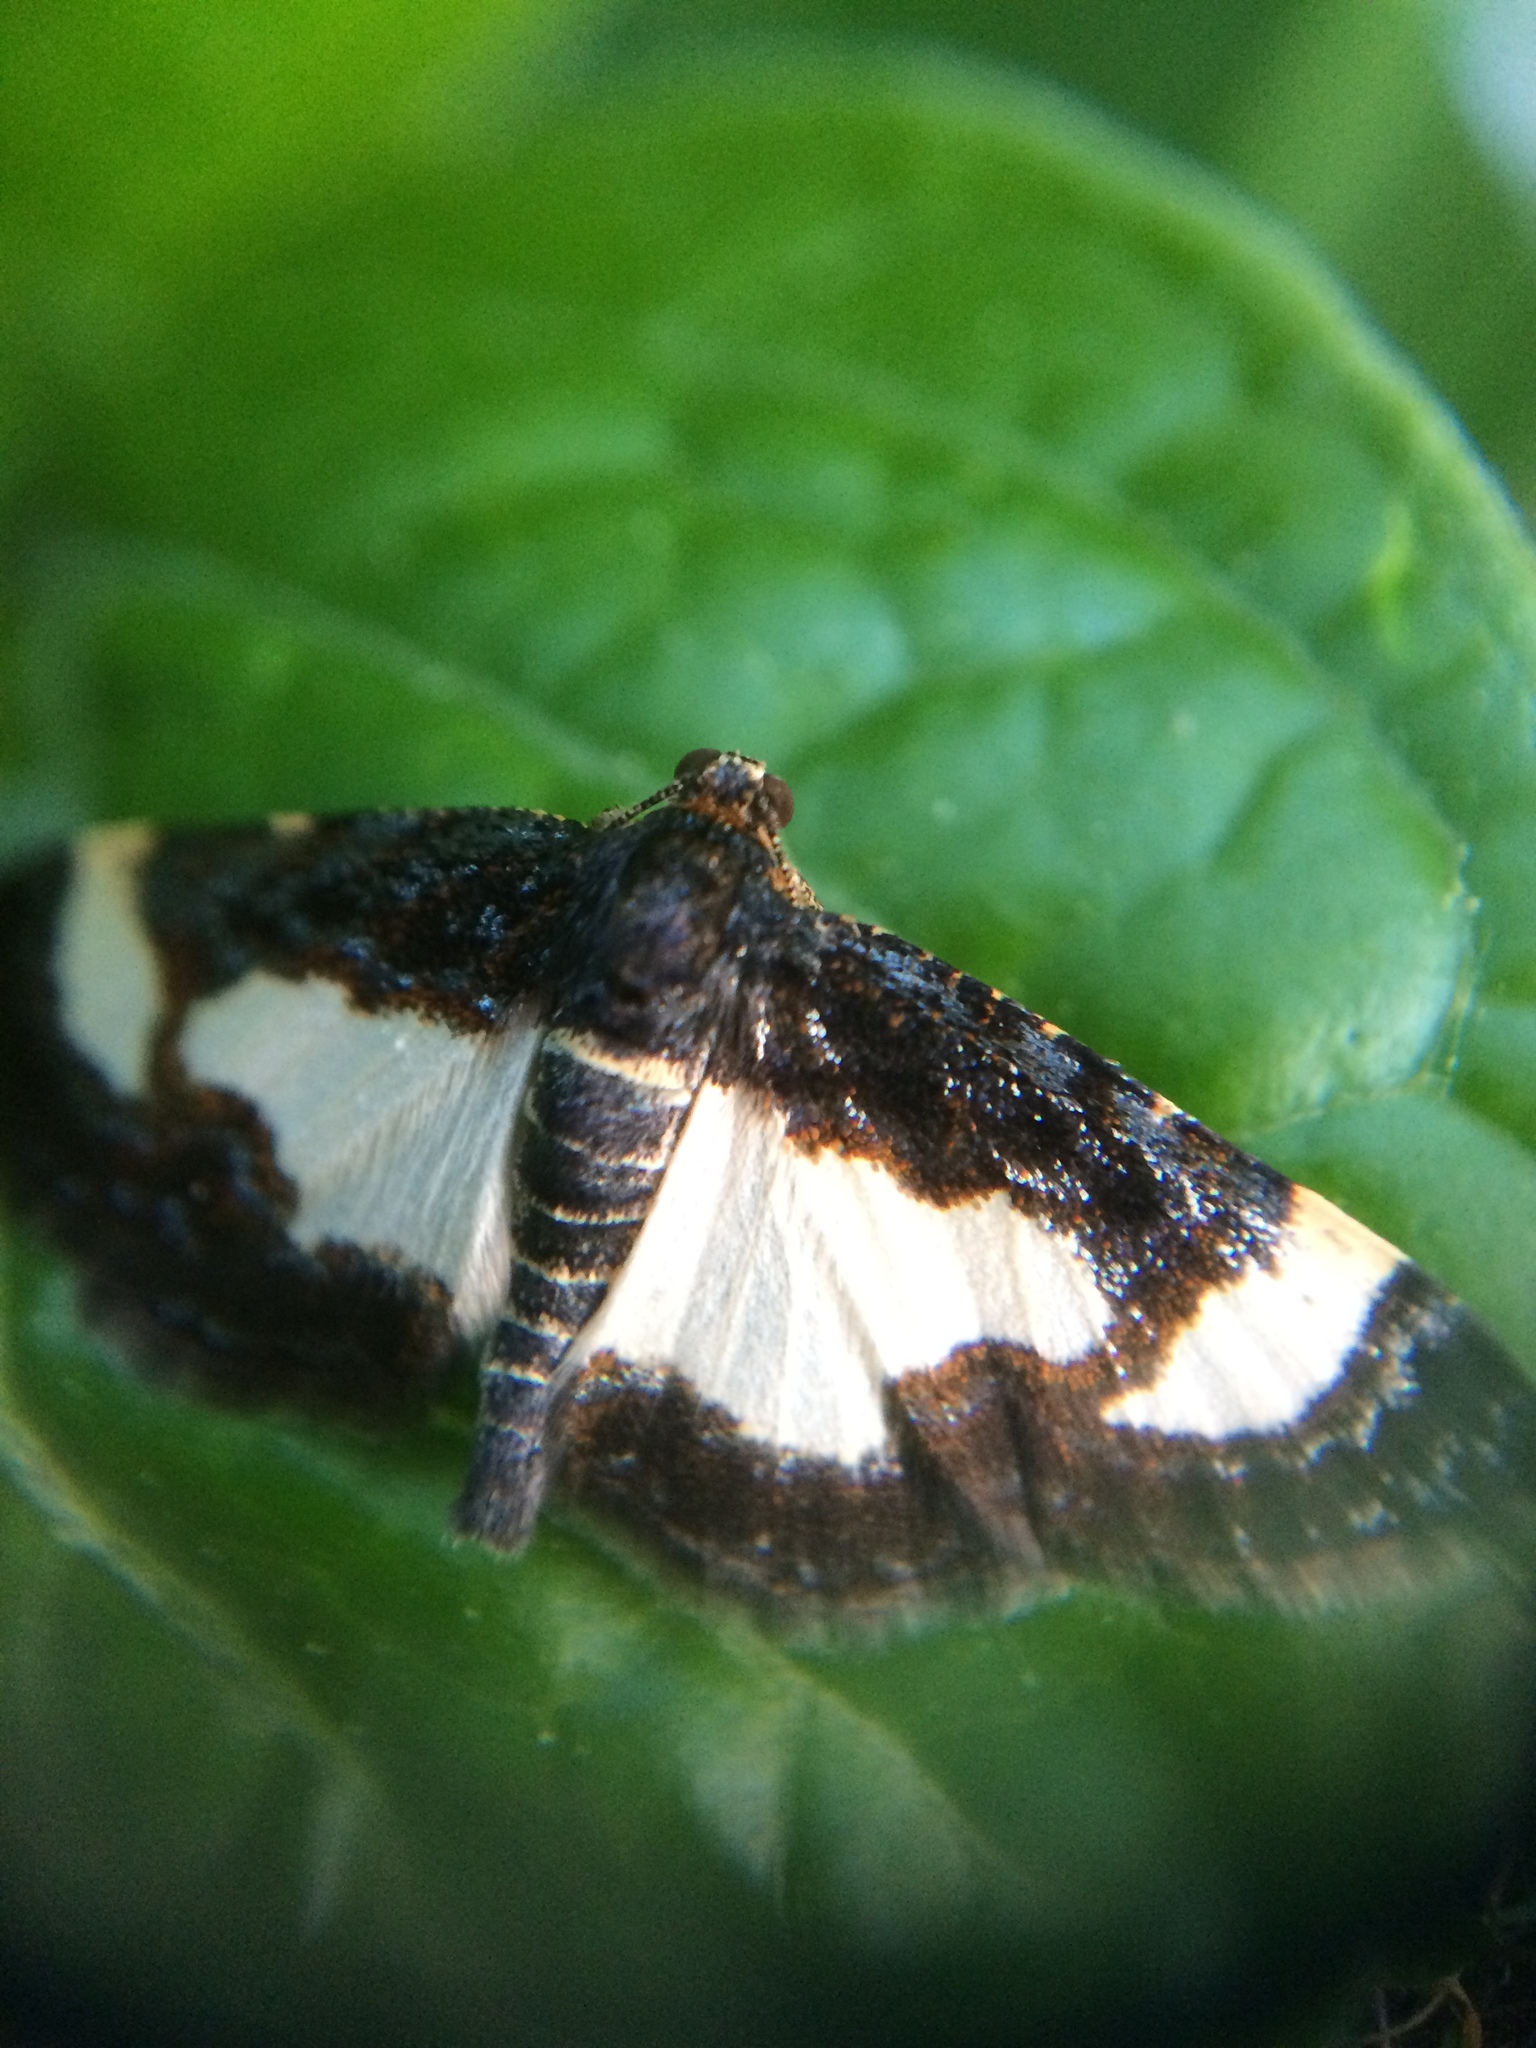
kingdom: Animalia
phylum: Arthropoda
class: Insecta
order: Lepidoptera
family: Geometridae
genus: Heliomata
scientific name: Heliomata cycladata
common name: Common spring moth
